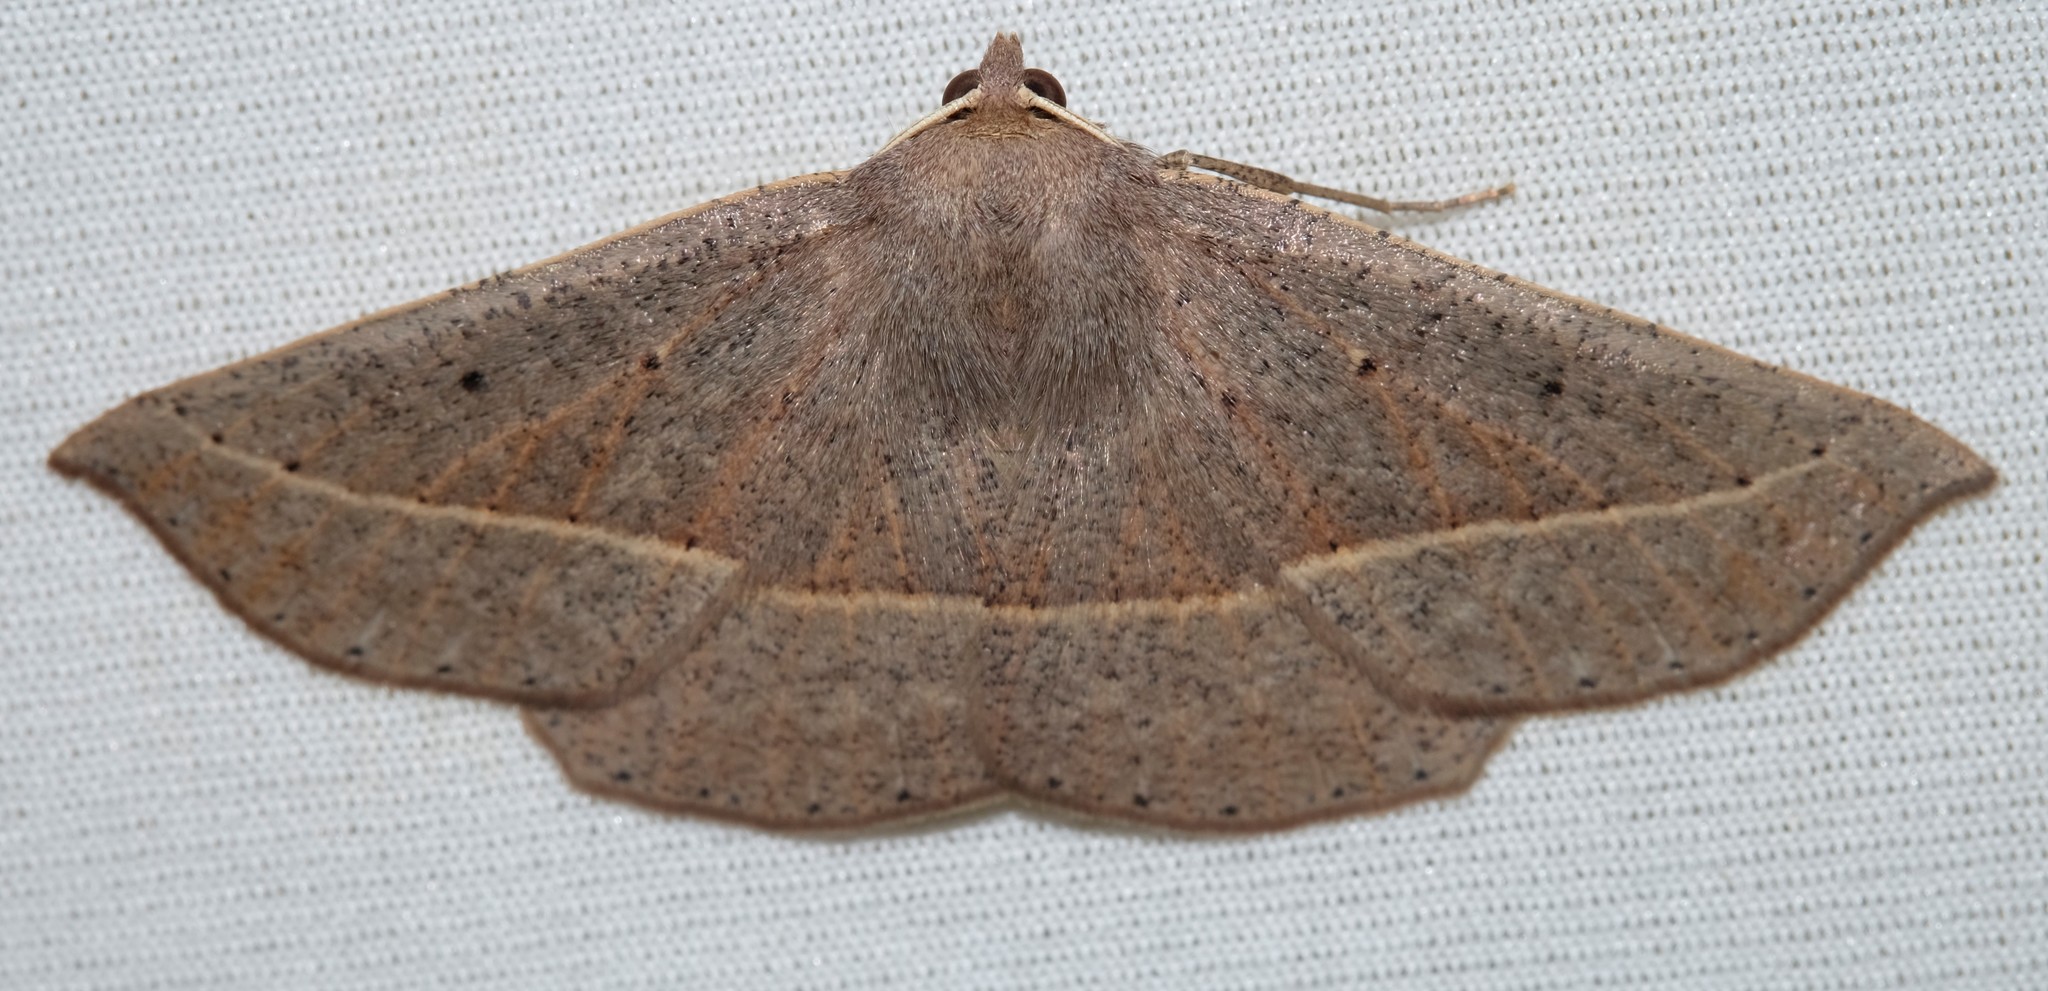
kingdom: Animalia
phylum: Arthropoda
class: Insecta
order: Lepidoptera
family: Geometridae
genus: Idiodes
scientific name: Idiodes apicata
